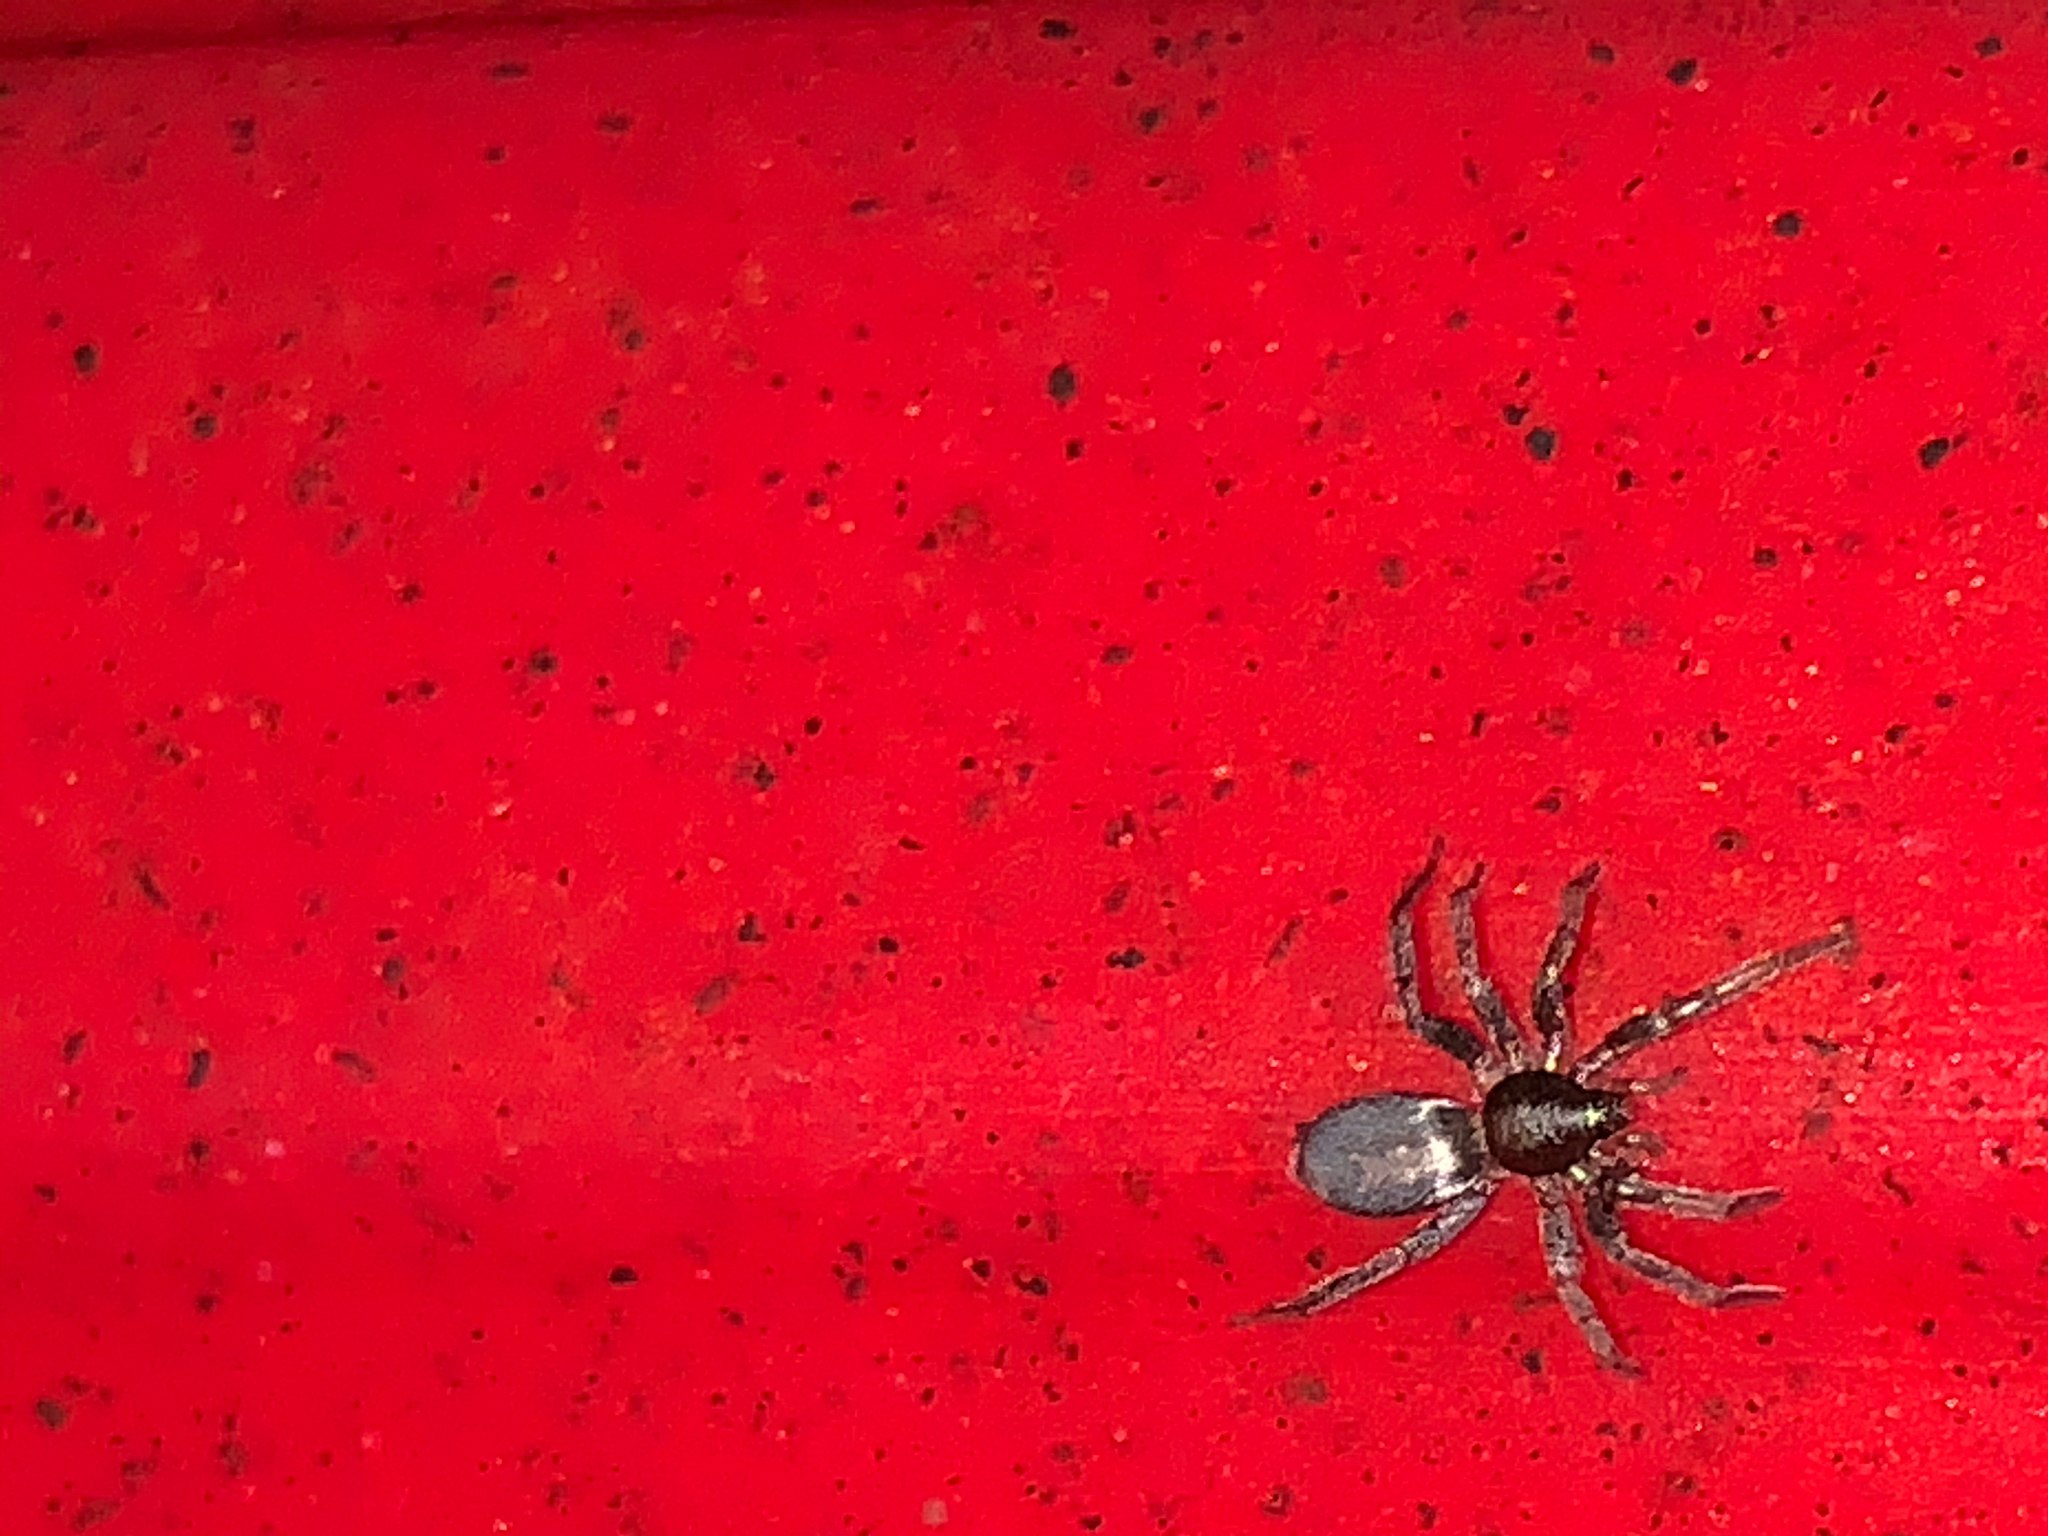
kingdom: Animalia
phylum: Arthropoda
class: Arachnida
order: Araneae
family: Gnaphosidae
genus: Herpyllus
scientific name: Herpyllus ecclesiasticus
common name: Eastern parson spider
